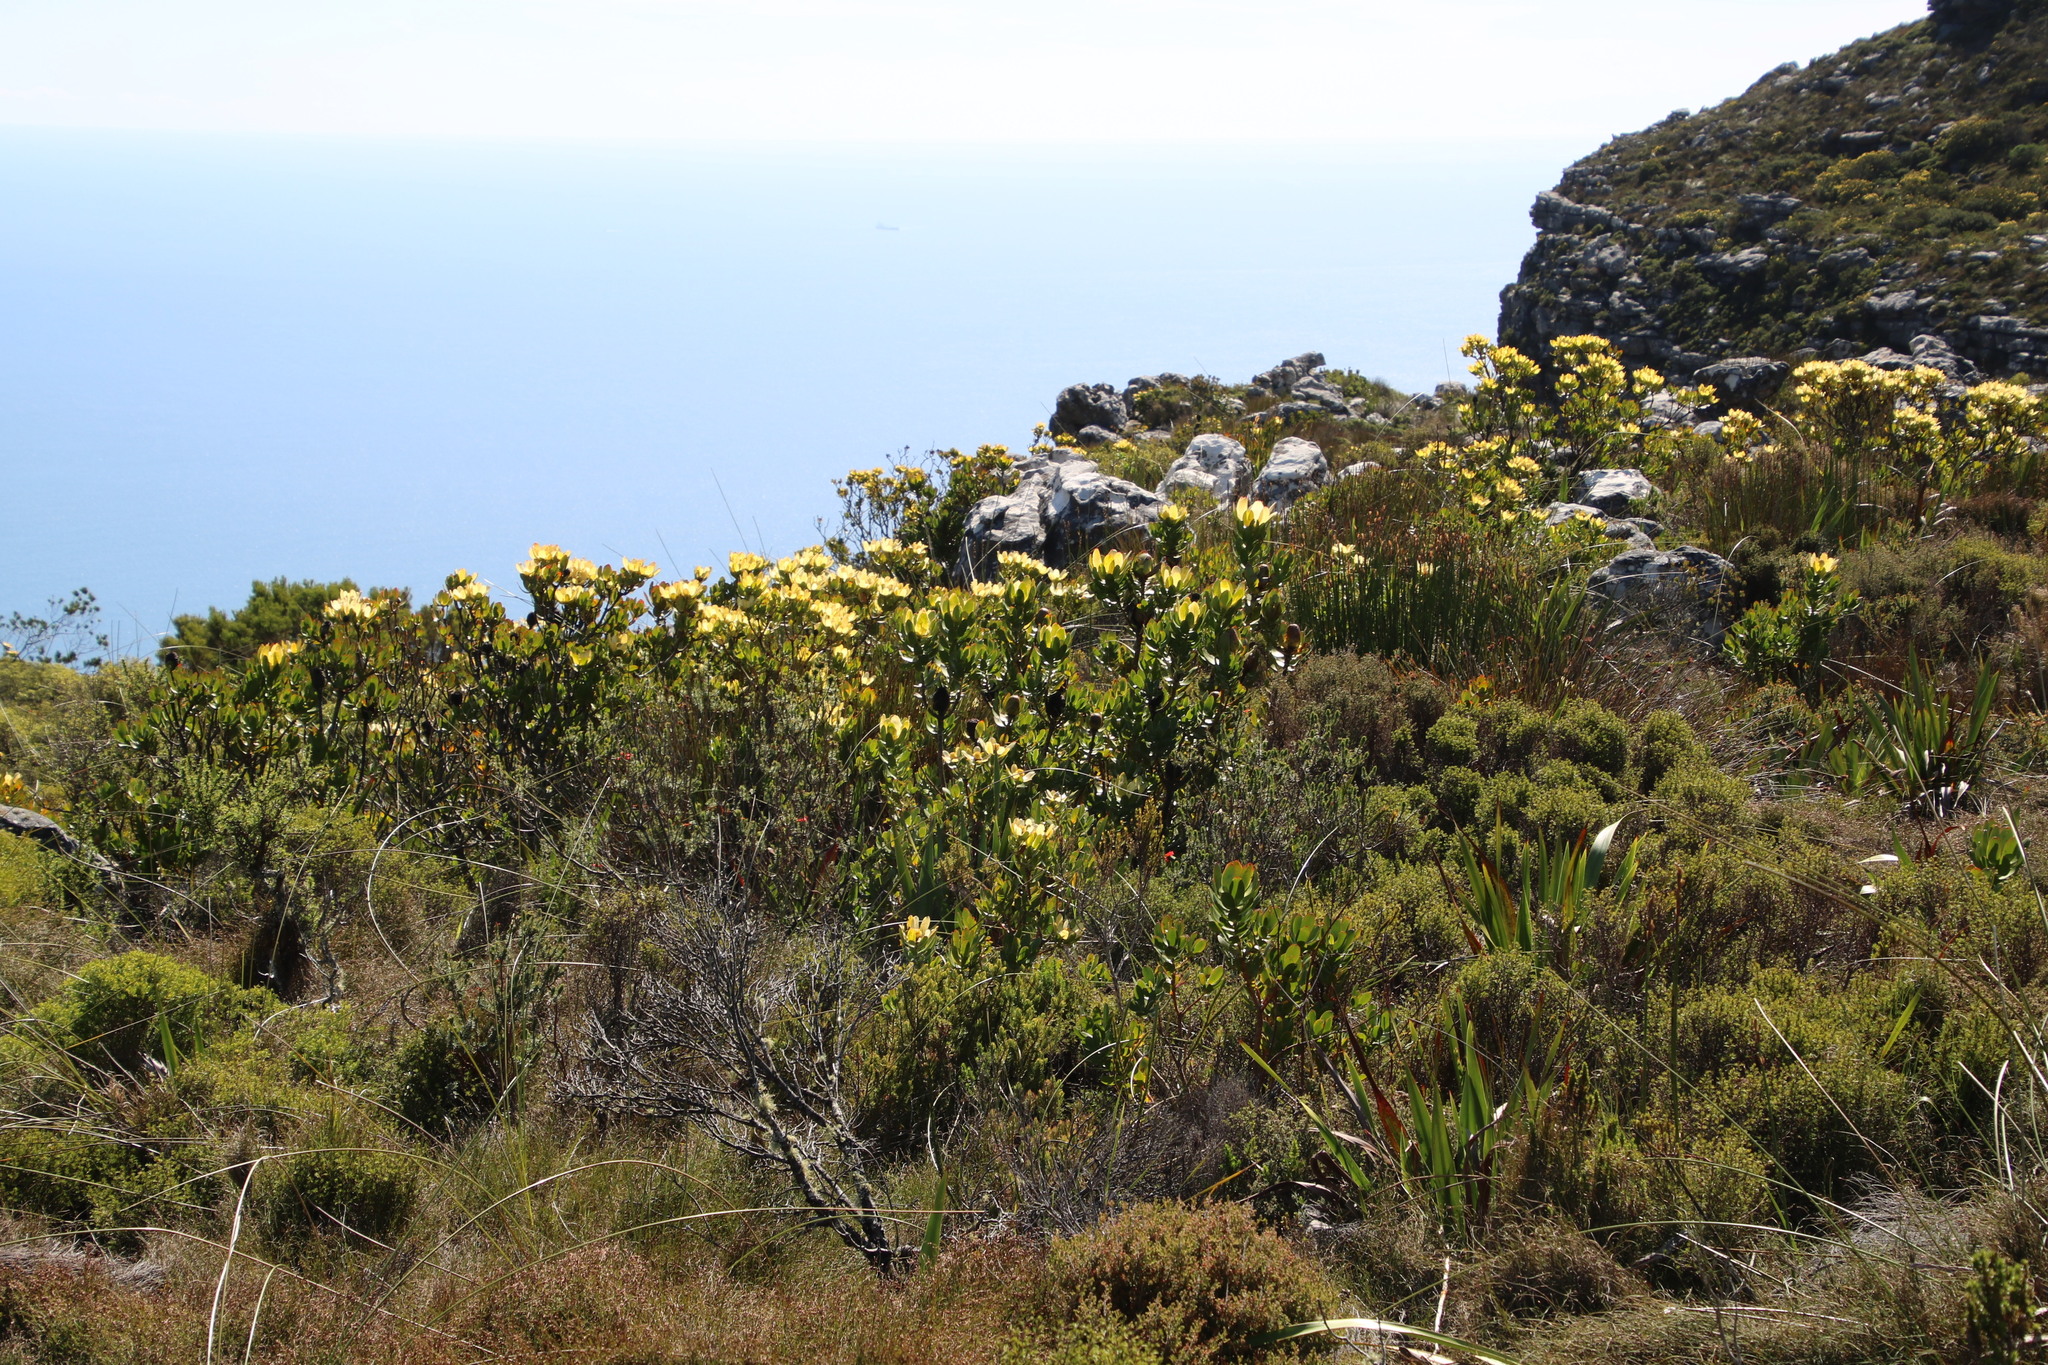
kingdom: Plantae
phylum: Tracheophyta
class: Magnoliopsida
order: Proteales
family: Proteaceae
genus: Leucadendron
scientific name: Leucadendron strobilinum
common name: Mountain rose
